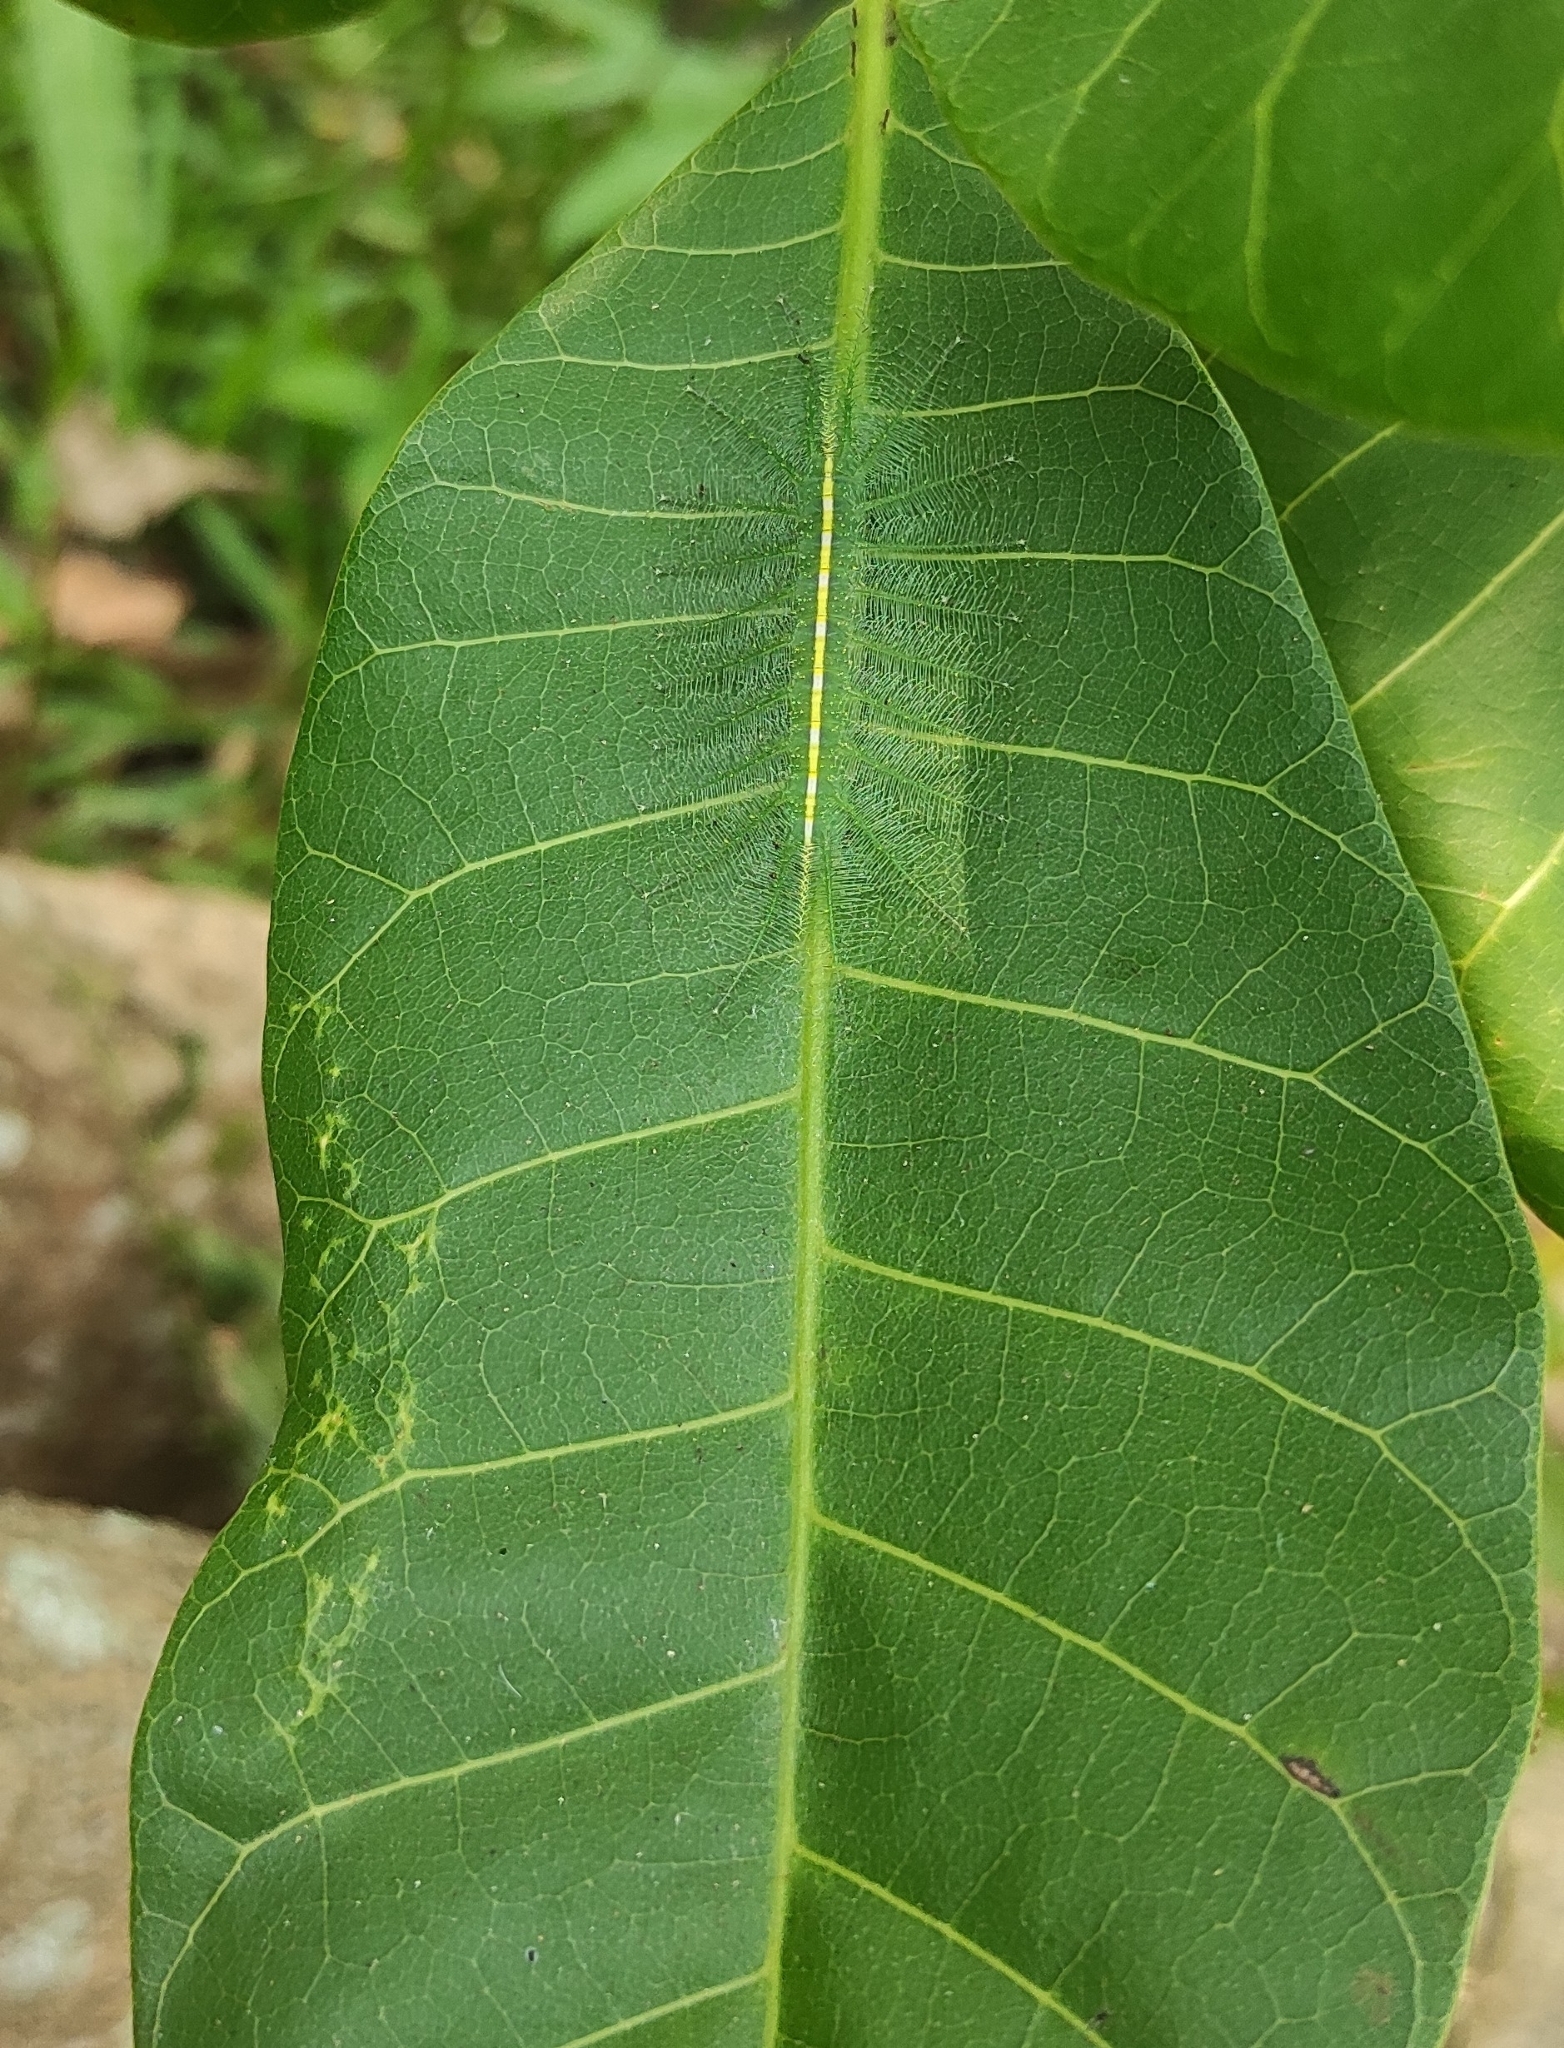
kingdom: Animalia
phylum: Arthropoda
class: Insecta
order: Lepidoptera
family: Nymphalidae
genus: Euthalia
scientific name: Euthalia aconthea
